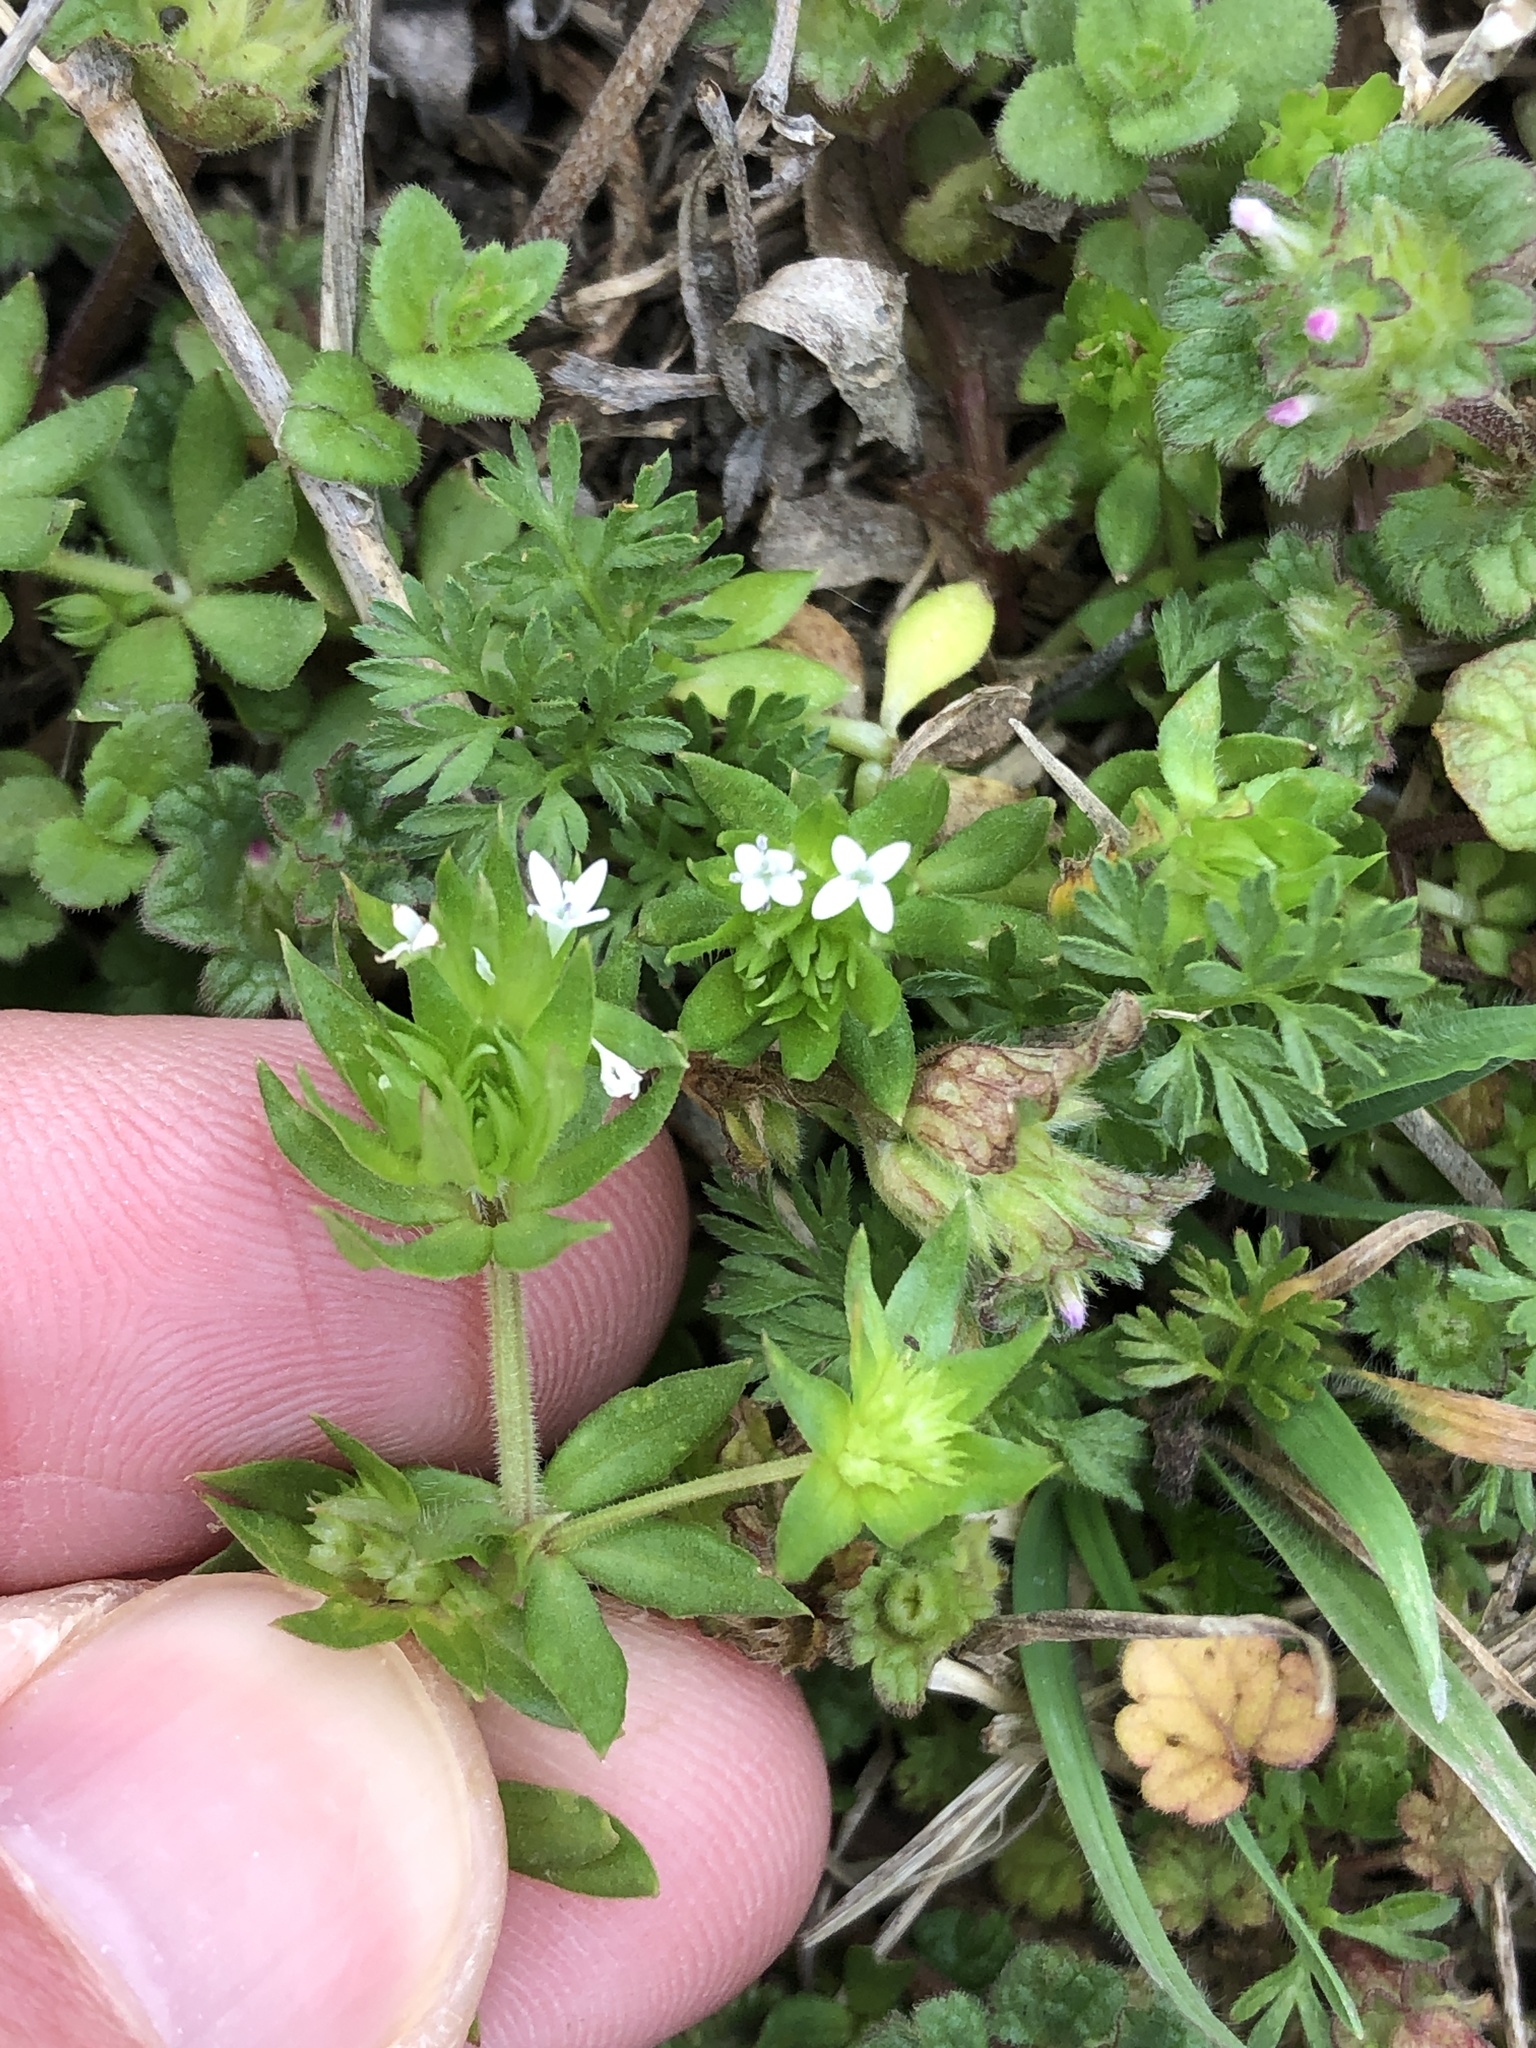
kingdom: Plantae
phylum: Tracheophyta
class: Magnoliopsida
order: Gentianales
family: Rubiaceae
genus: Sherardia
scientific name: Sherardia arvensis
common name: Field madder
